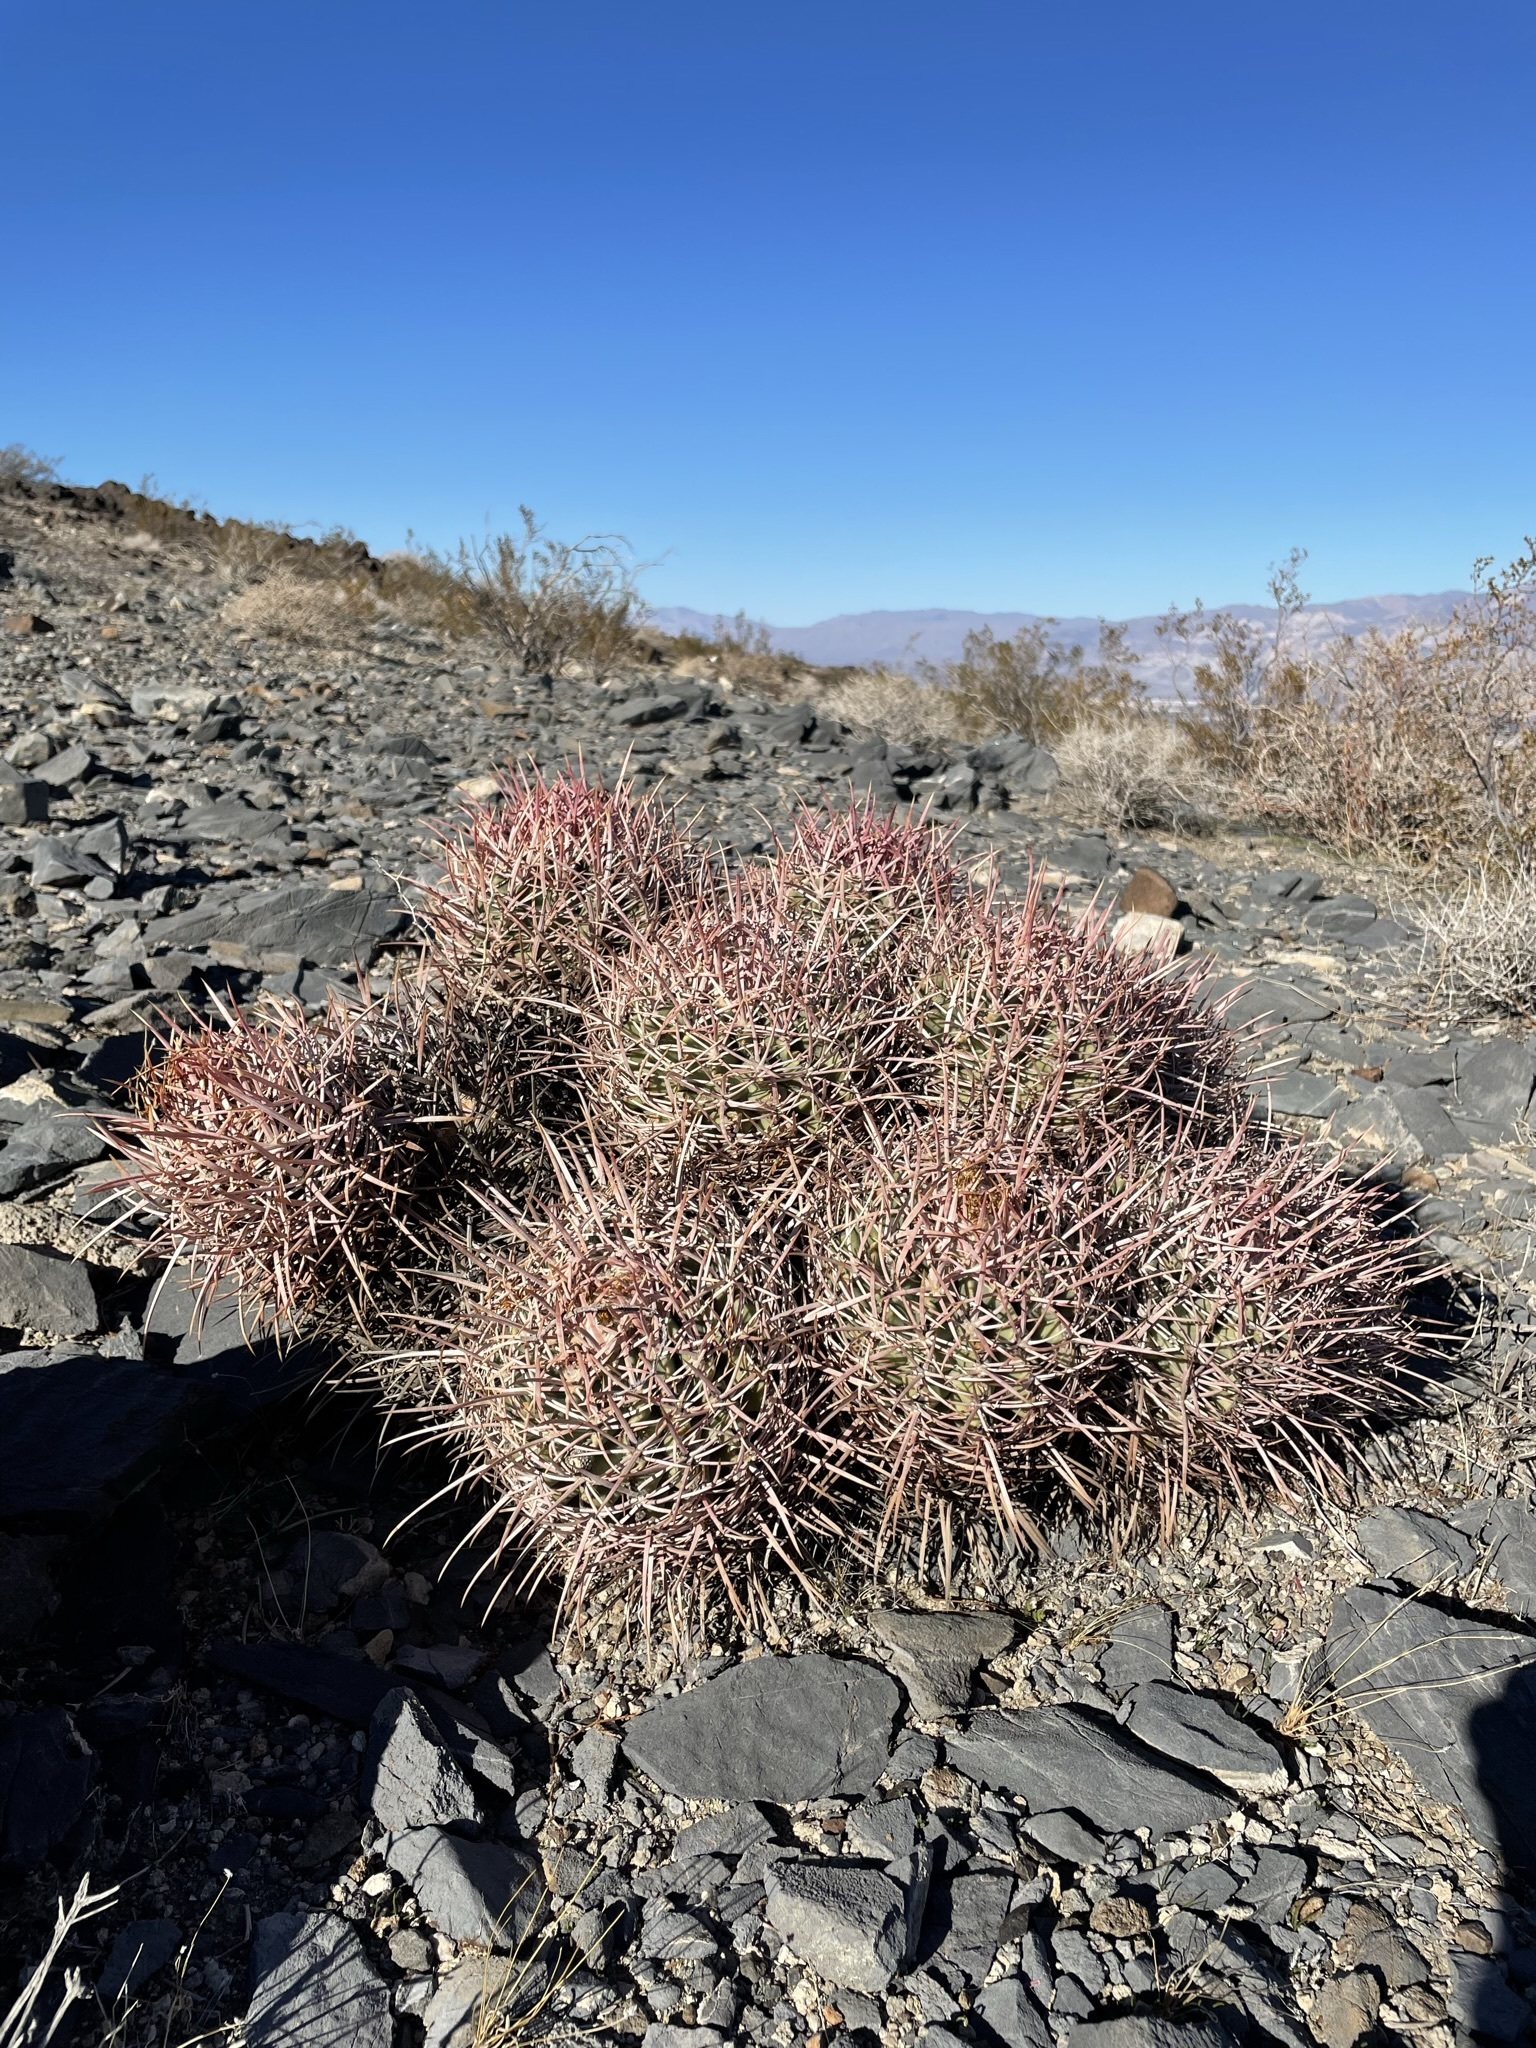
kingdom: Plantae
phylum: Tracheophyta
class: Magnoliopsida
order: Caryophyllales
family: Cactaceae
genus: Echinocactus
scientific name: Echinocactus polycephalus
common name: Cottontop cactus
